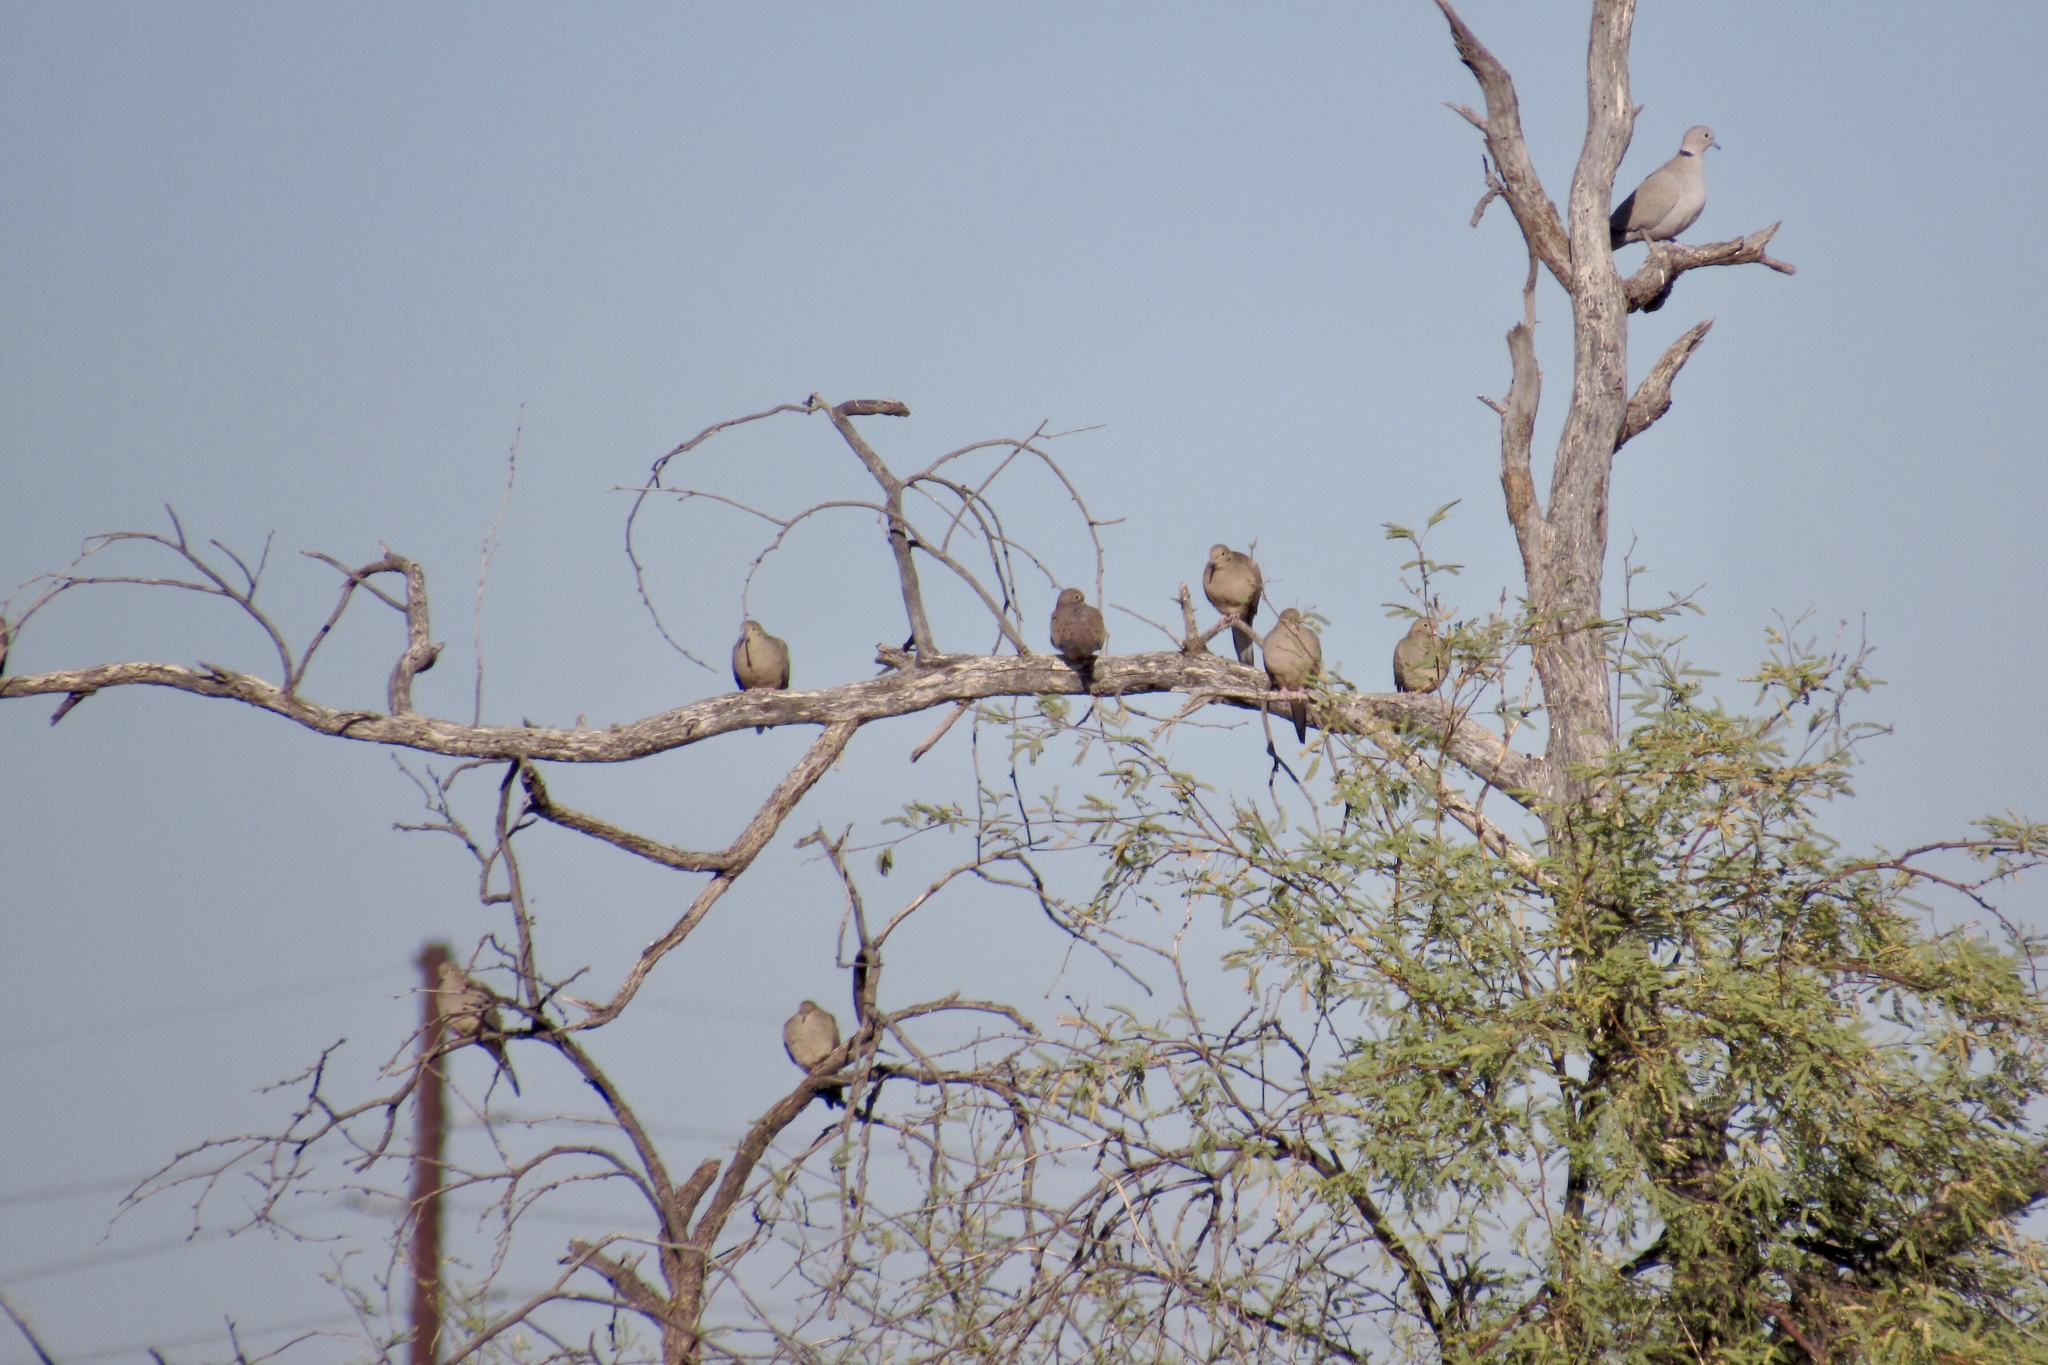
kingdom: Animalia
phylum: Chordata
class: Aves
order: Columbiformes
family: Columbidae
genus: Zenaida
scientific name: Zenaida macroura
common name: Mourning dove
